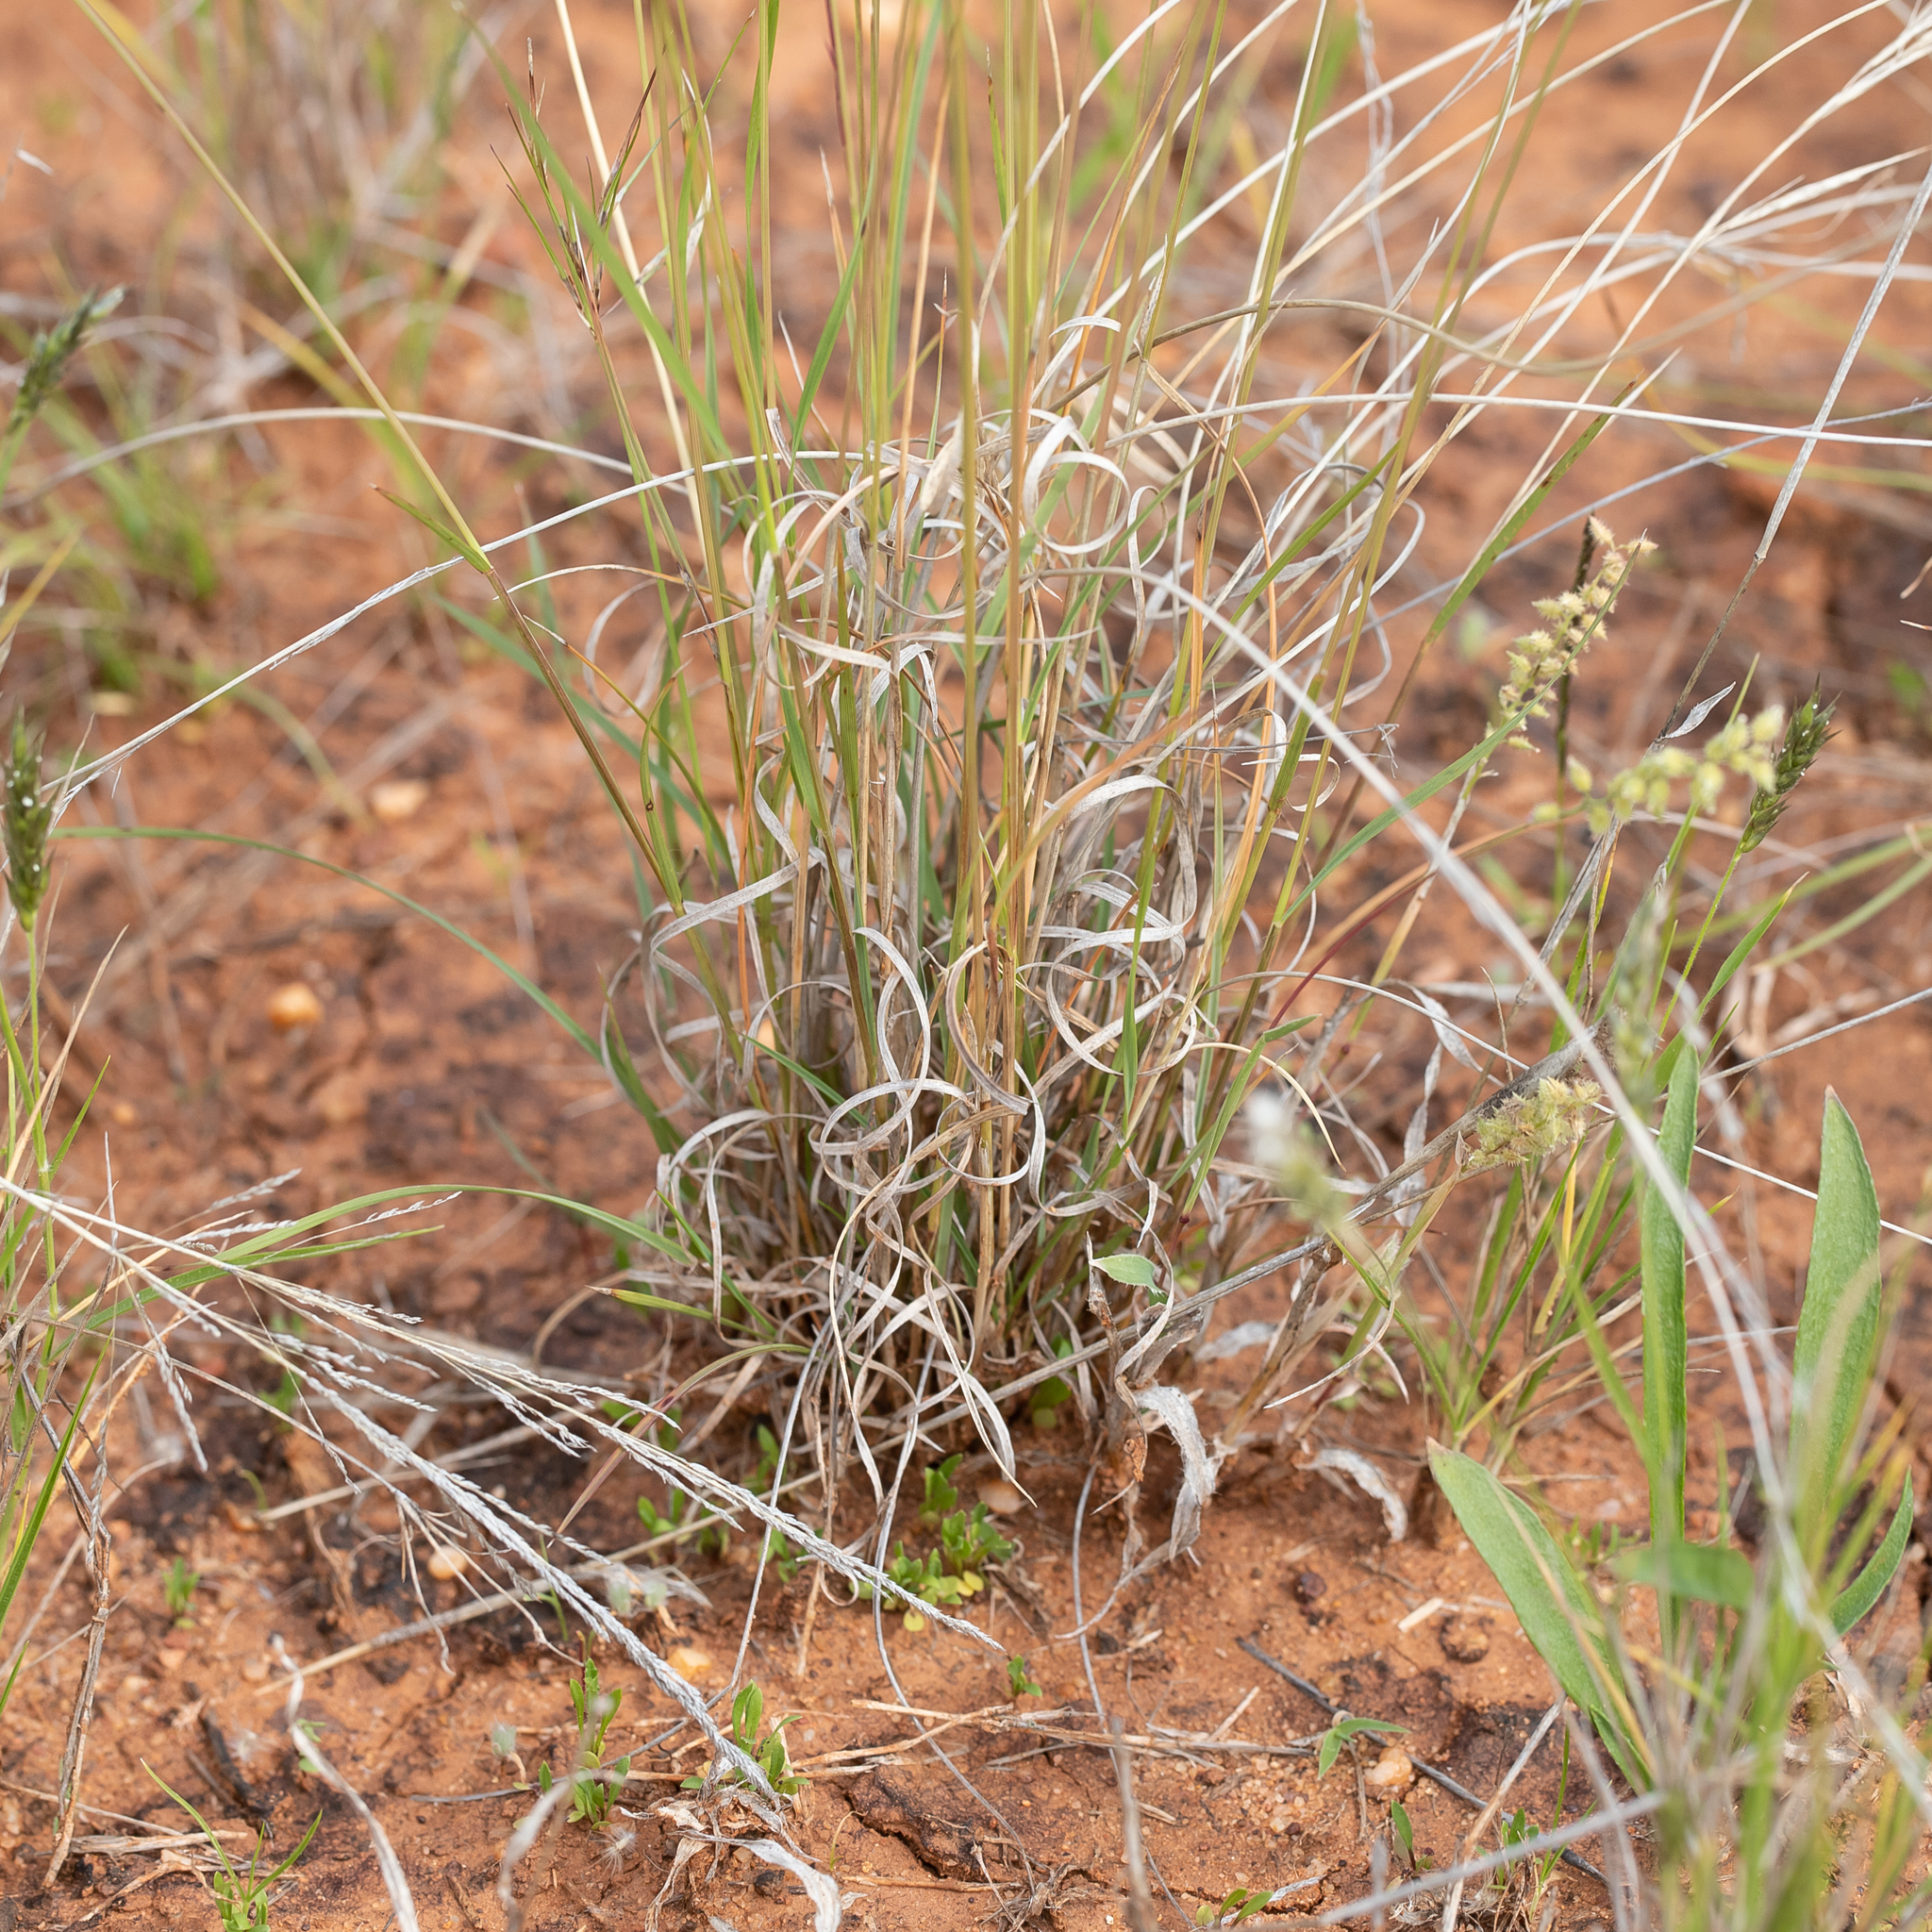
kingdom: Plantae
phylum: Tracheophyta
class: Liliopsida
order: Poales
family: Poaceae
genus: Aristida
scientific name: Aristida platychaeta
